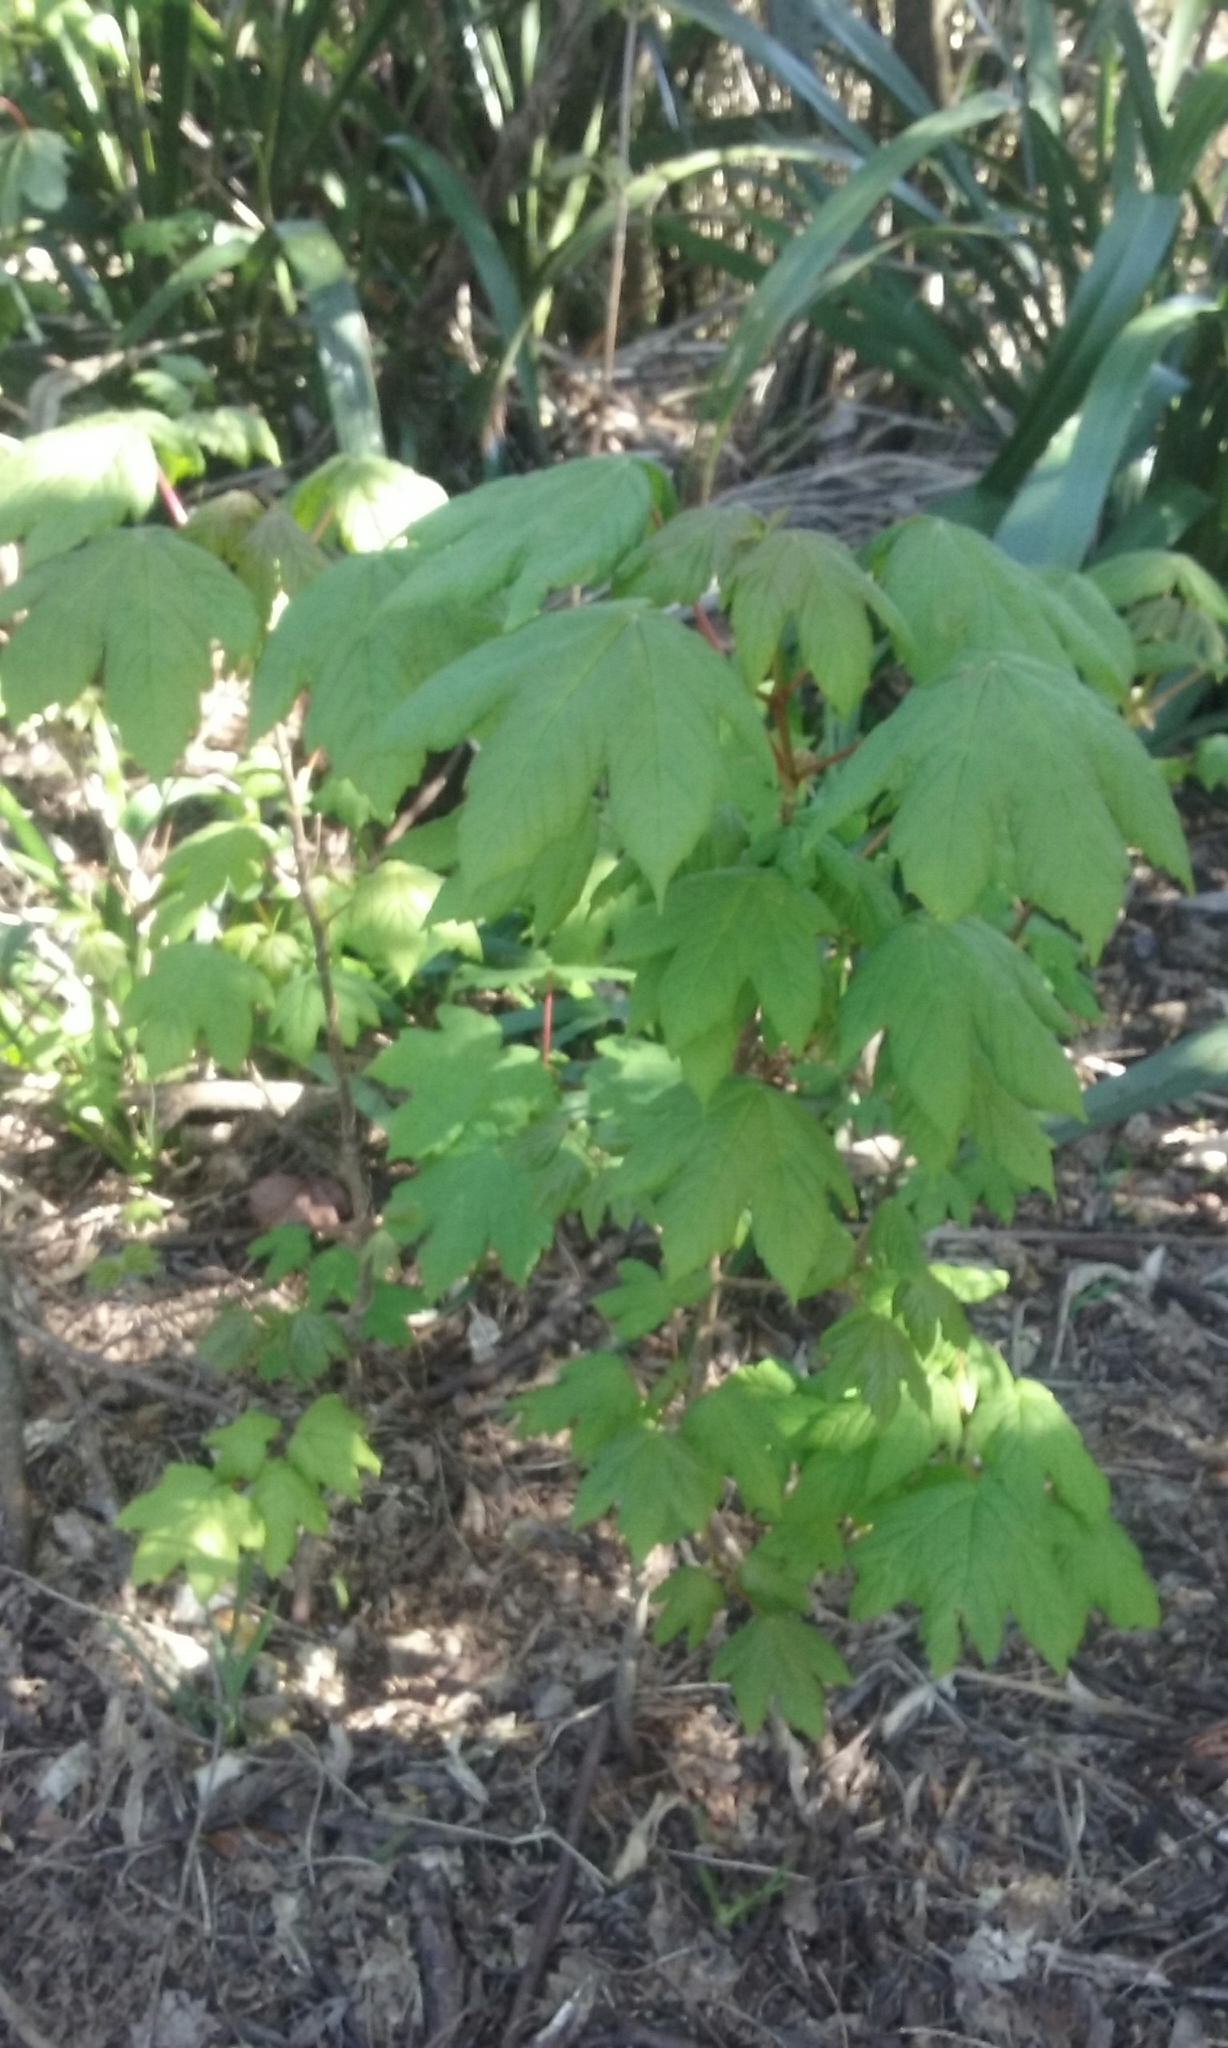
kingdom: Plantae
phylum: Tracheophyta
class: Magnoliopsida
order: Sapindales
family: Sapindaceae
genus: Acer
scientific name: Acer pseudoplatanus
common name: Sycamore
